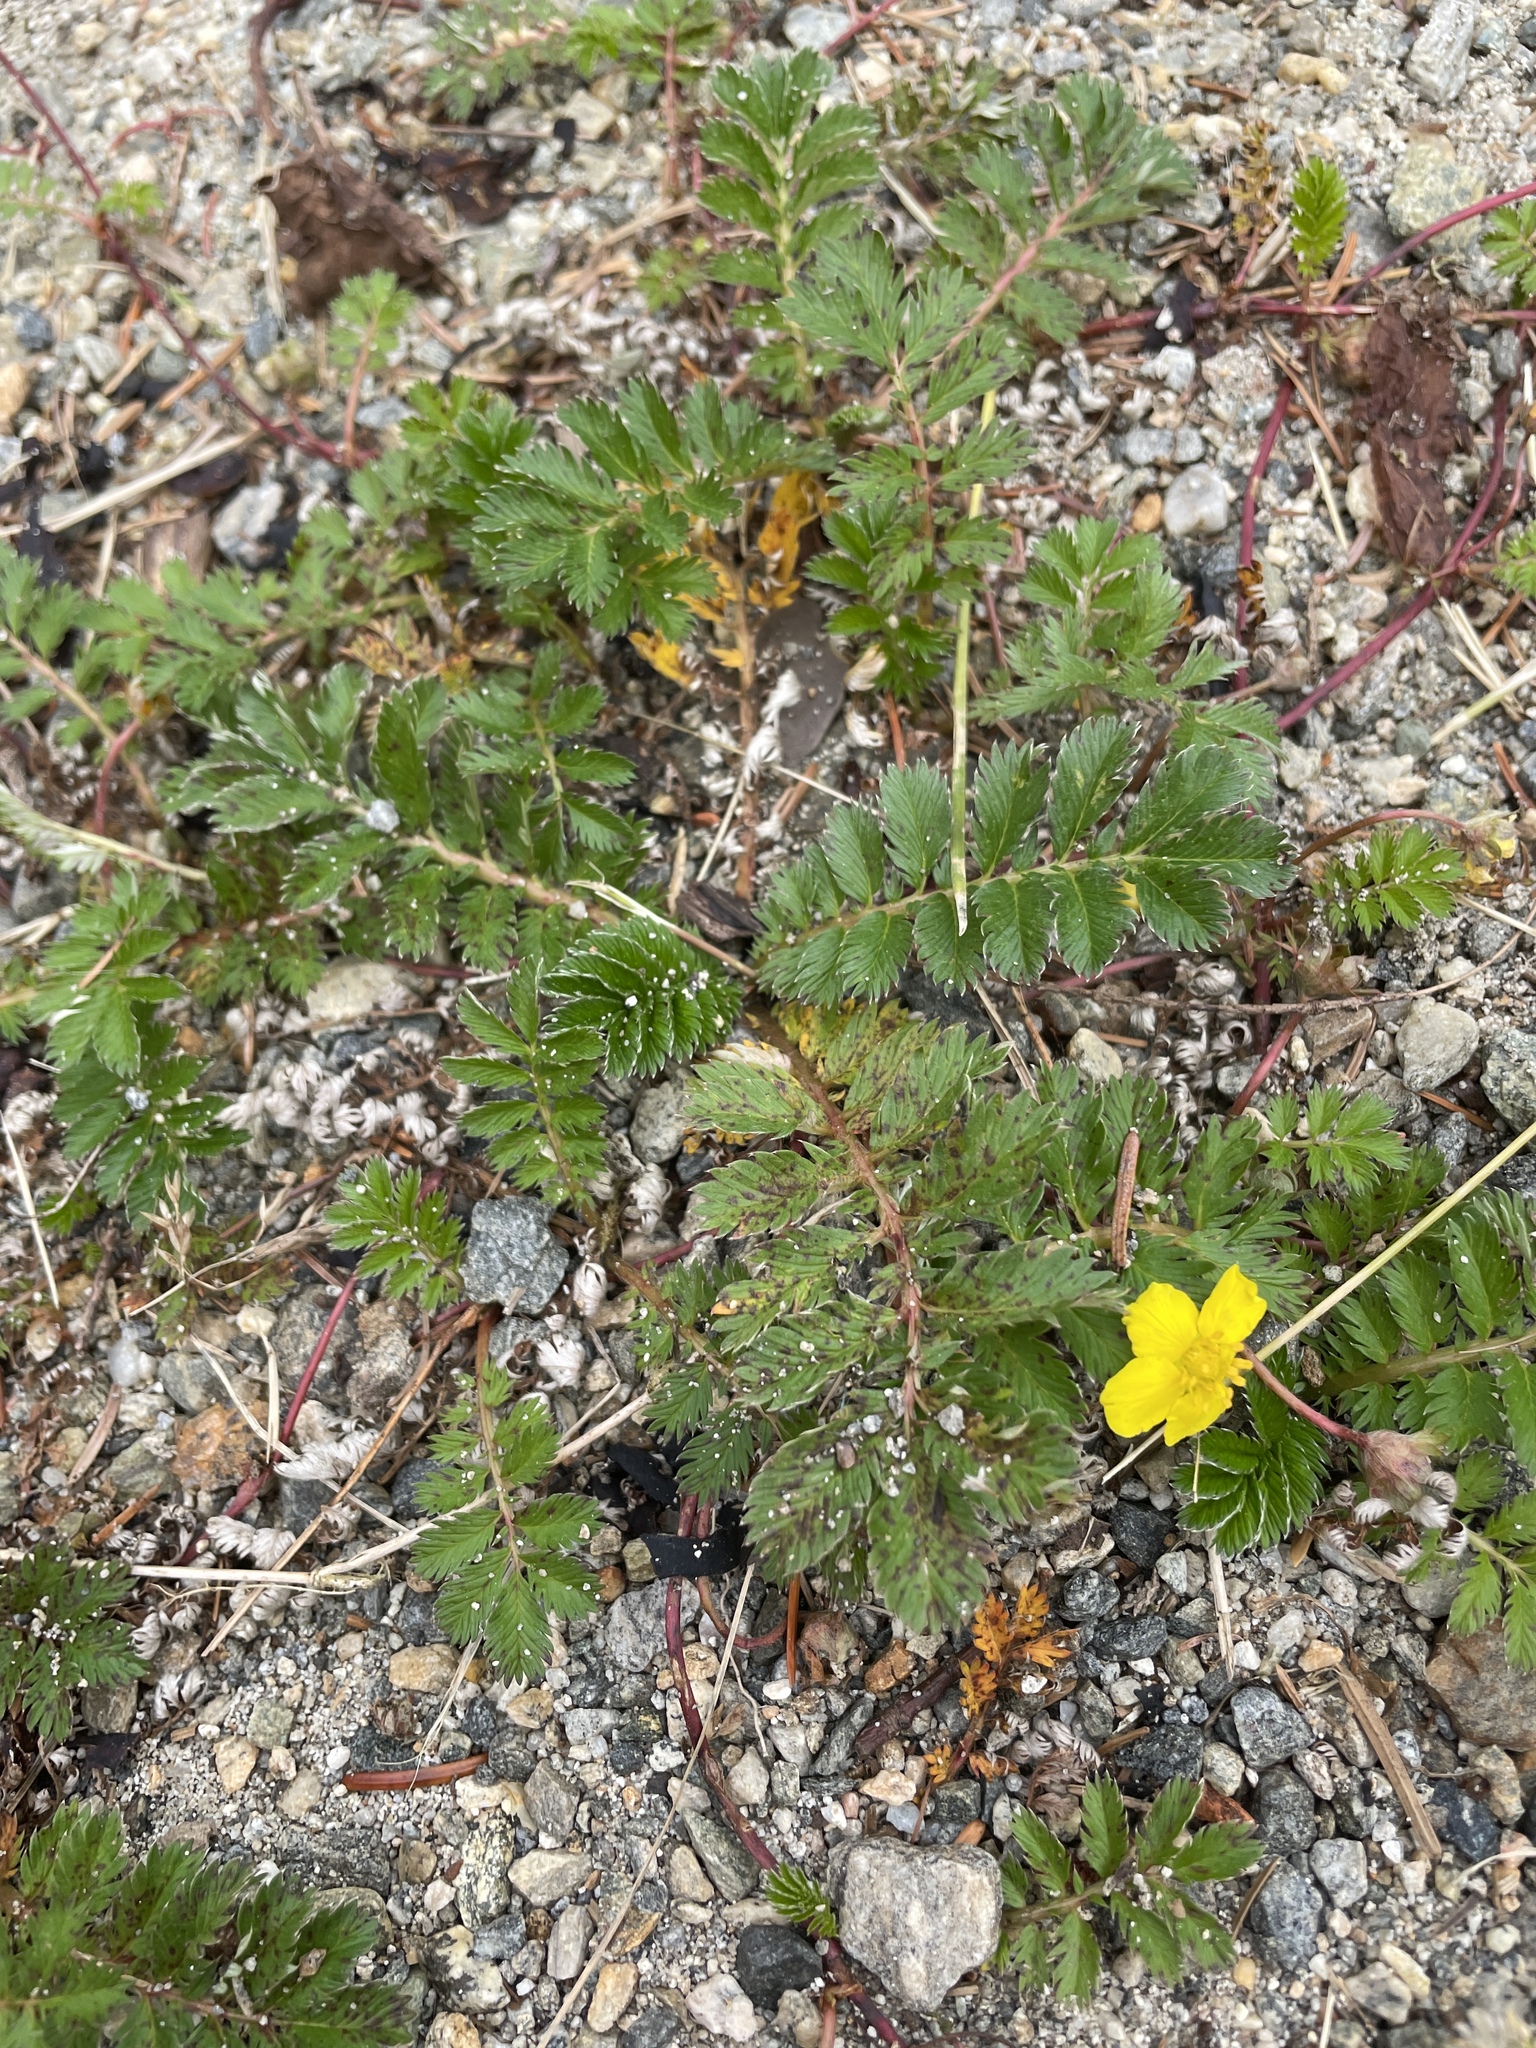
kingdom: Plantae
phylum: Tracheophyta
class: Magnoliopsida
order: Rosales
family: Rosaceae
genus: Argentina
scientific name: Argentina anserina
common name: Common silverweed
